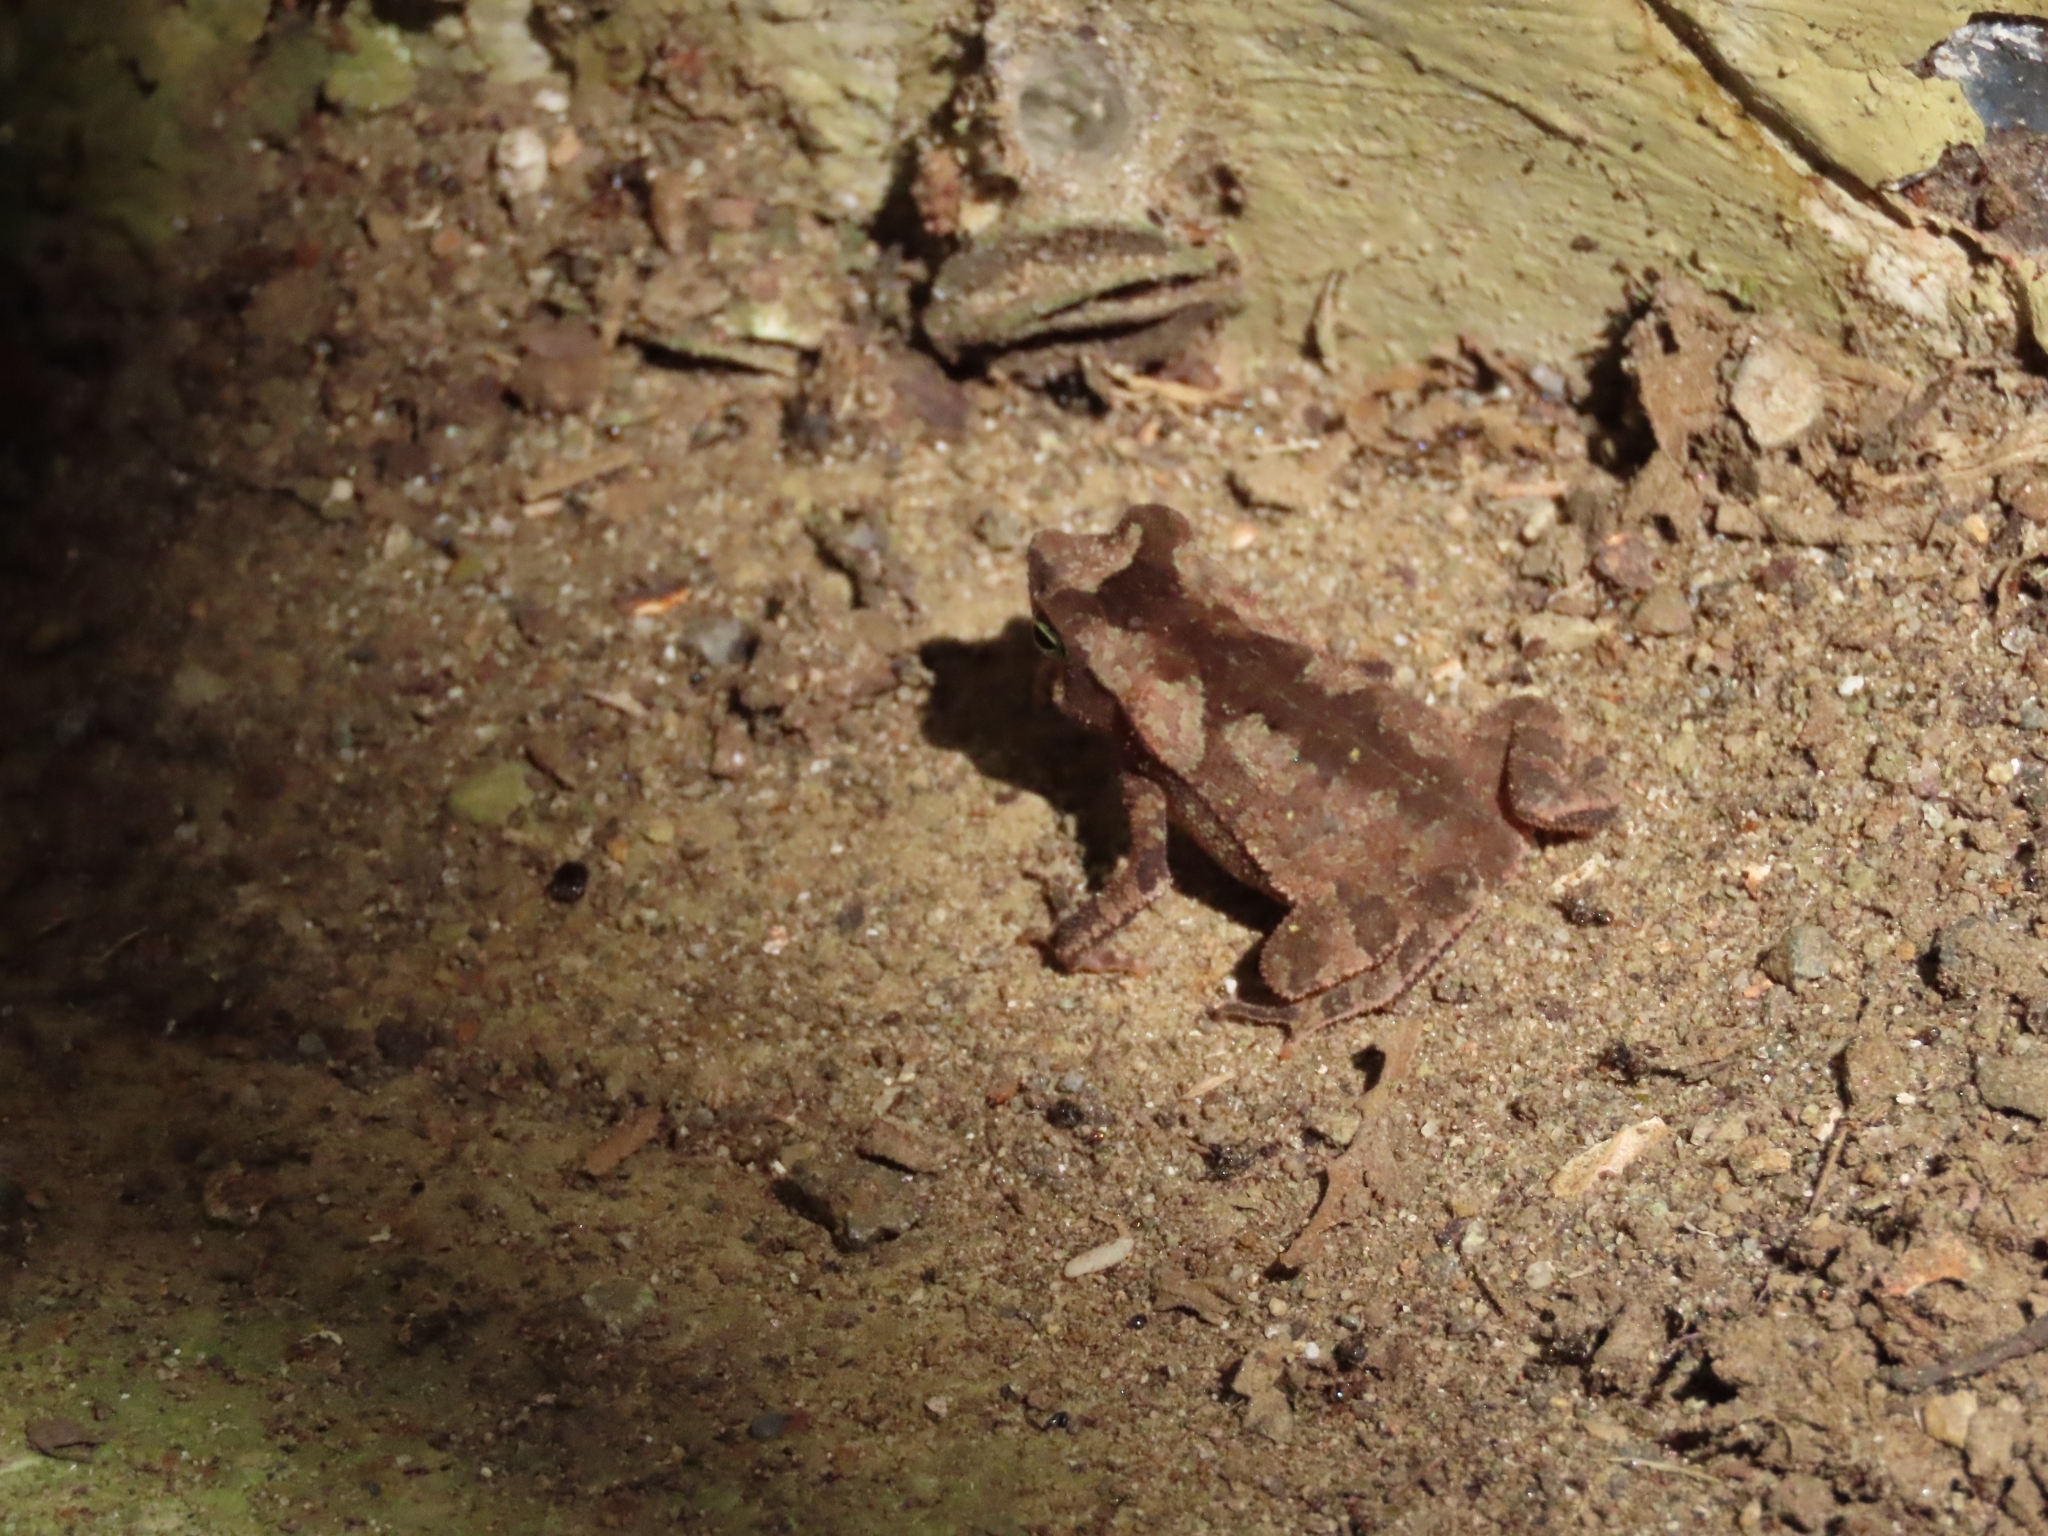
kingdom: Animalia
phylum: Chordata
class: Amphibia
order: Anura
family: Bufonidae
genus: Rhinella
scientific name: Rhinella alata
